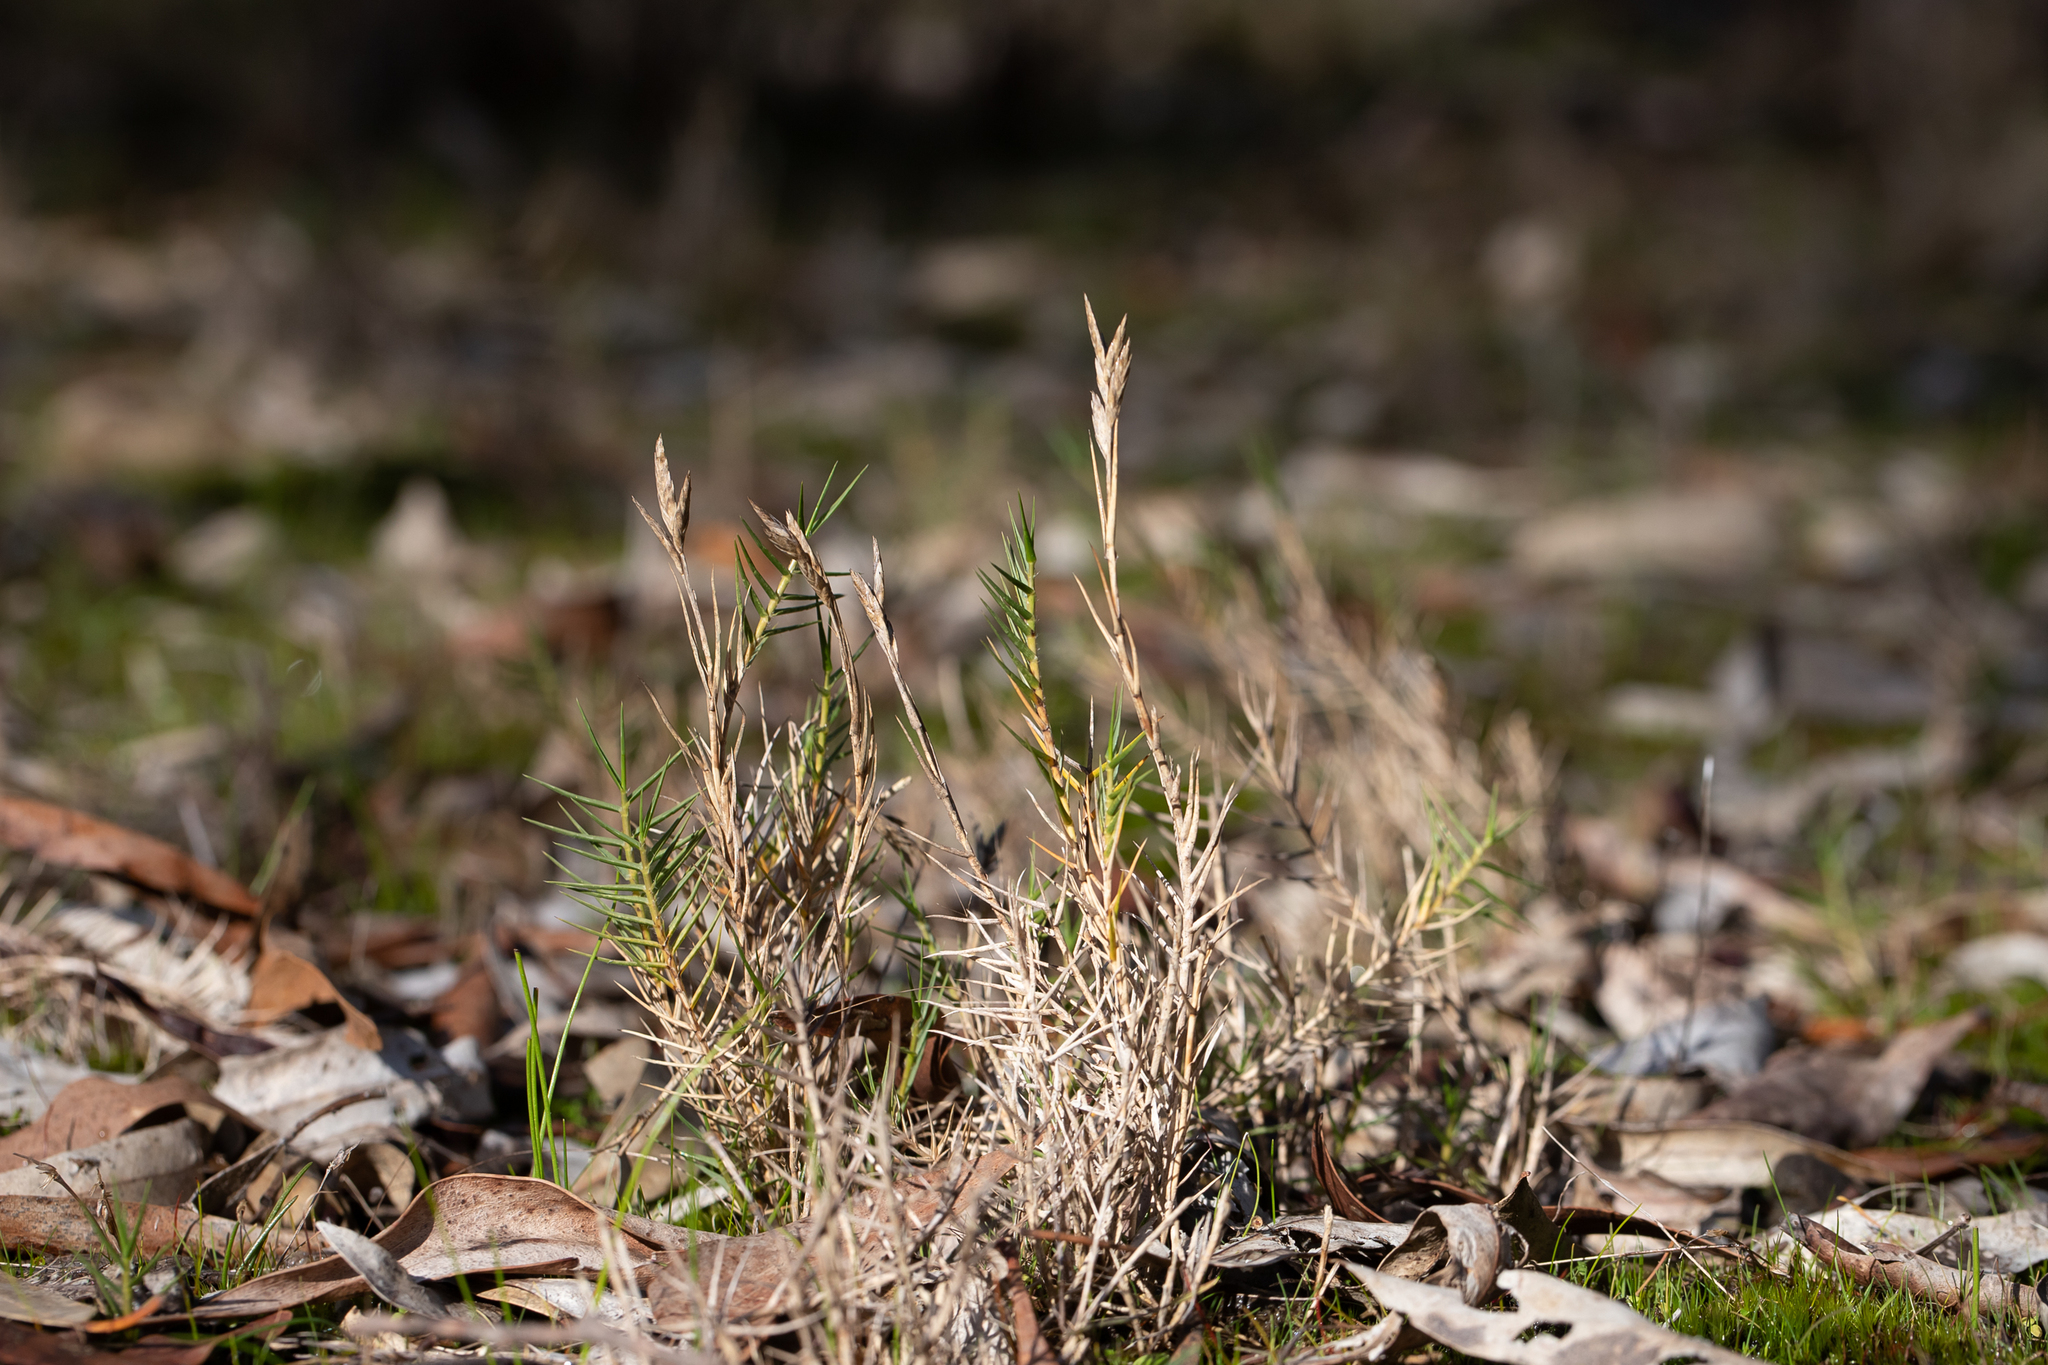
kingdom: Plantae
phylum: Tracheophyta
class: Liliopsida
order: Poales
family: Poaceae
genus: Distichlis
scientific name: Distichlis distichophylla
